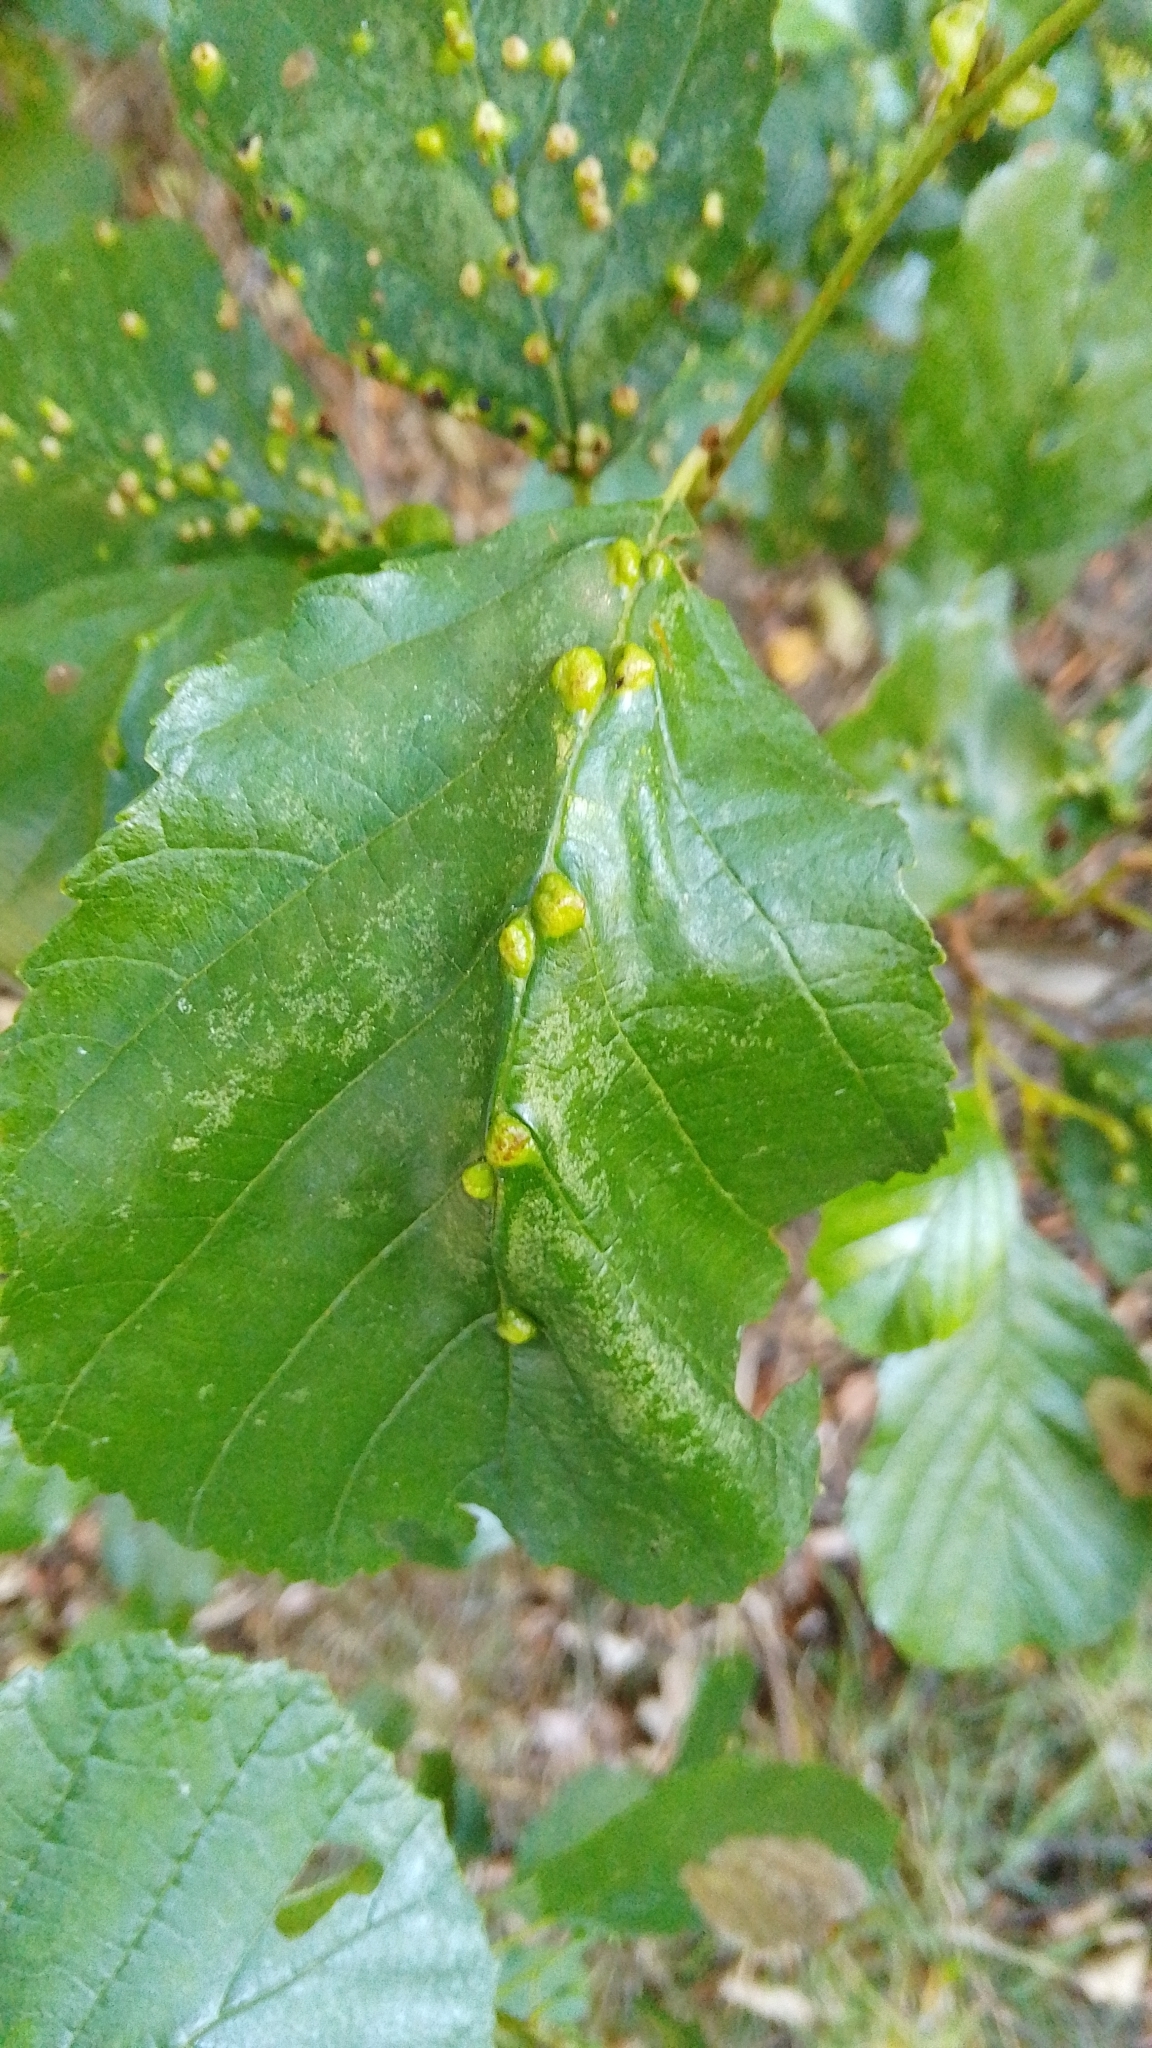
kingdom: Animalia
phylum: Arthropoda
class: Arachnida
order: Trombidiformes
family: Eriophyidae
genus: Eriophyes
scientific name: Eriophyes inangulis
